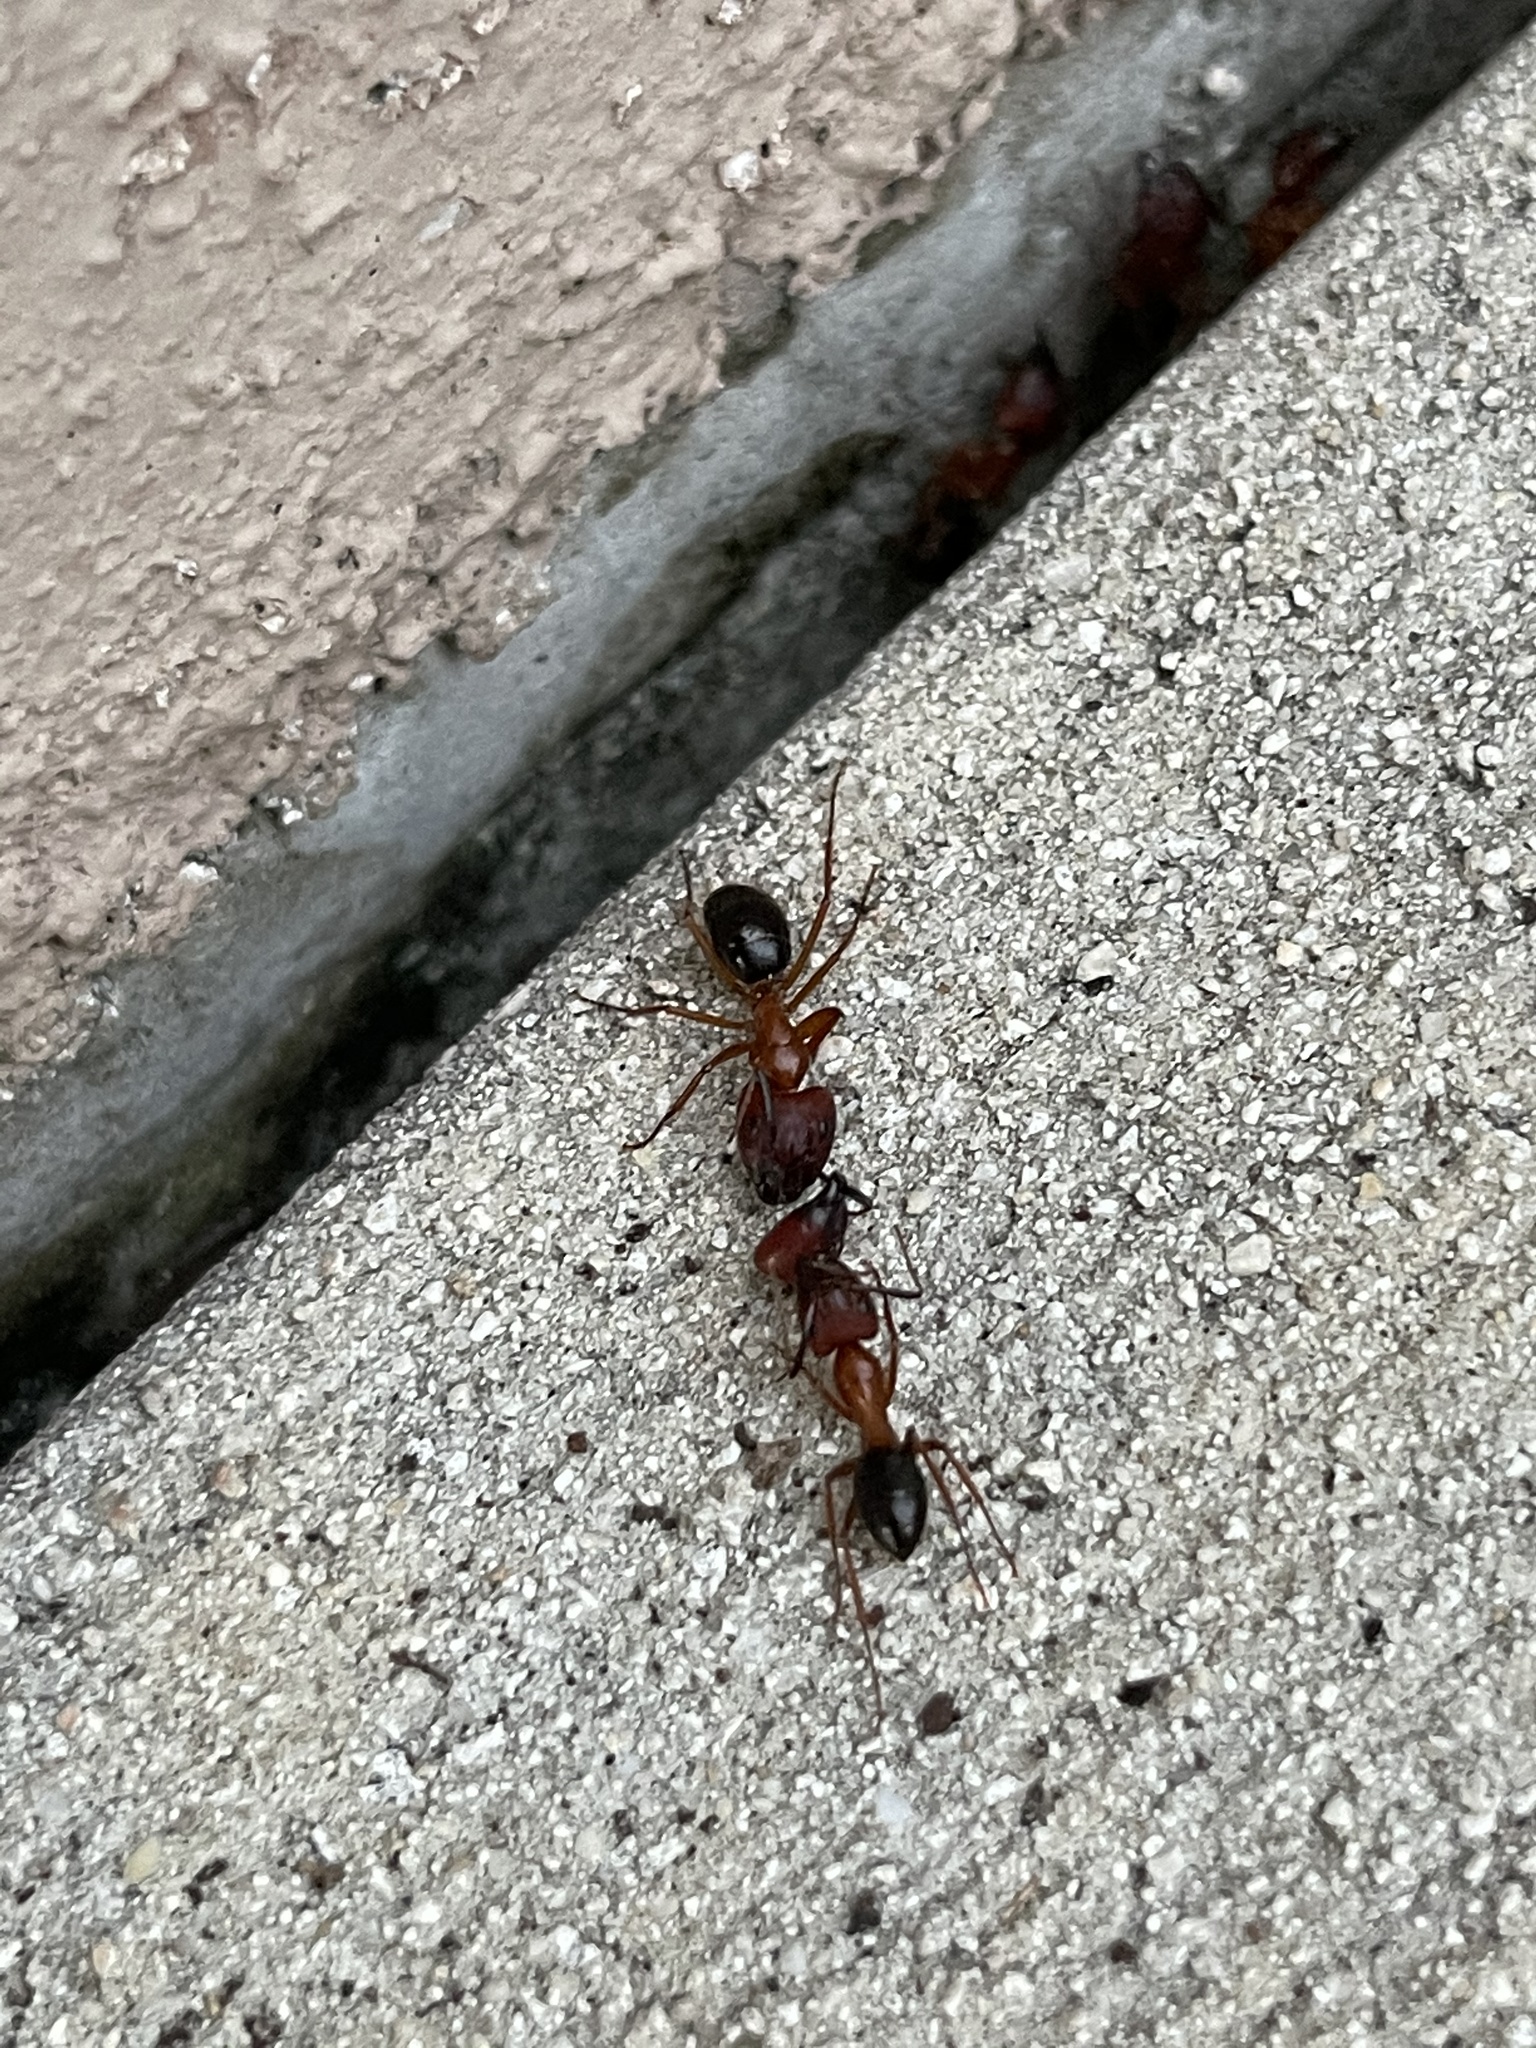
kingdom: Animalia
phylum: Arthropoda
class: Insecta
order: Hymenoptera
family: Formicidae
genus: Camponotus
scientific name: Camponotus floridanus
